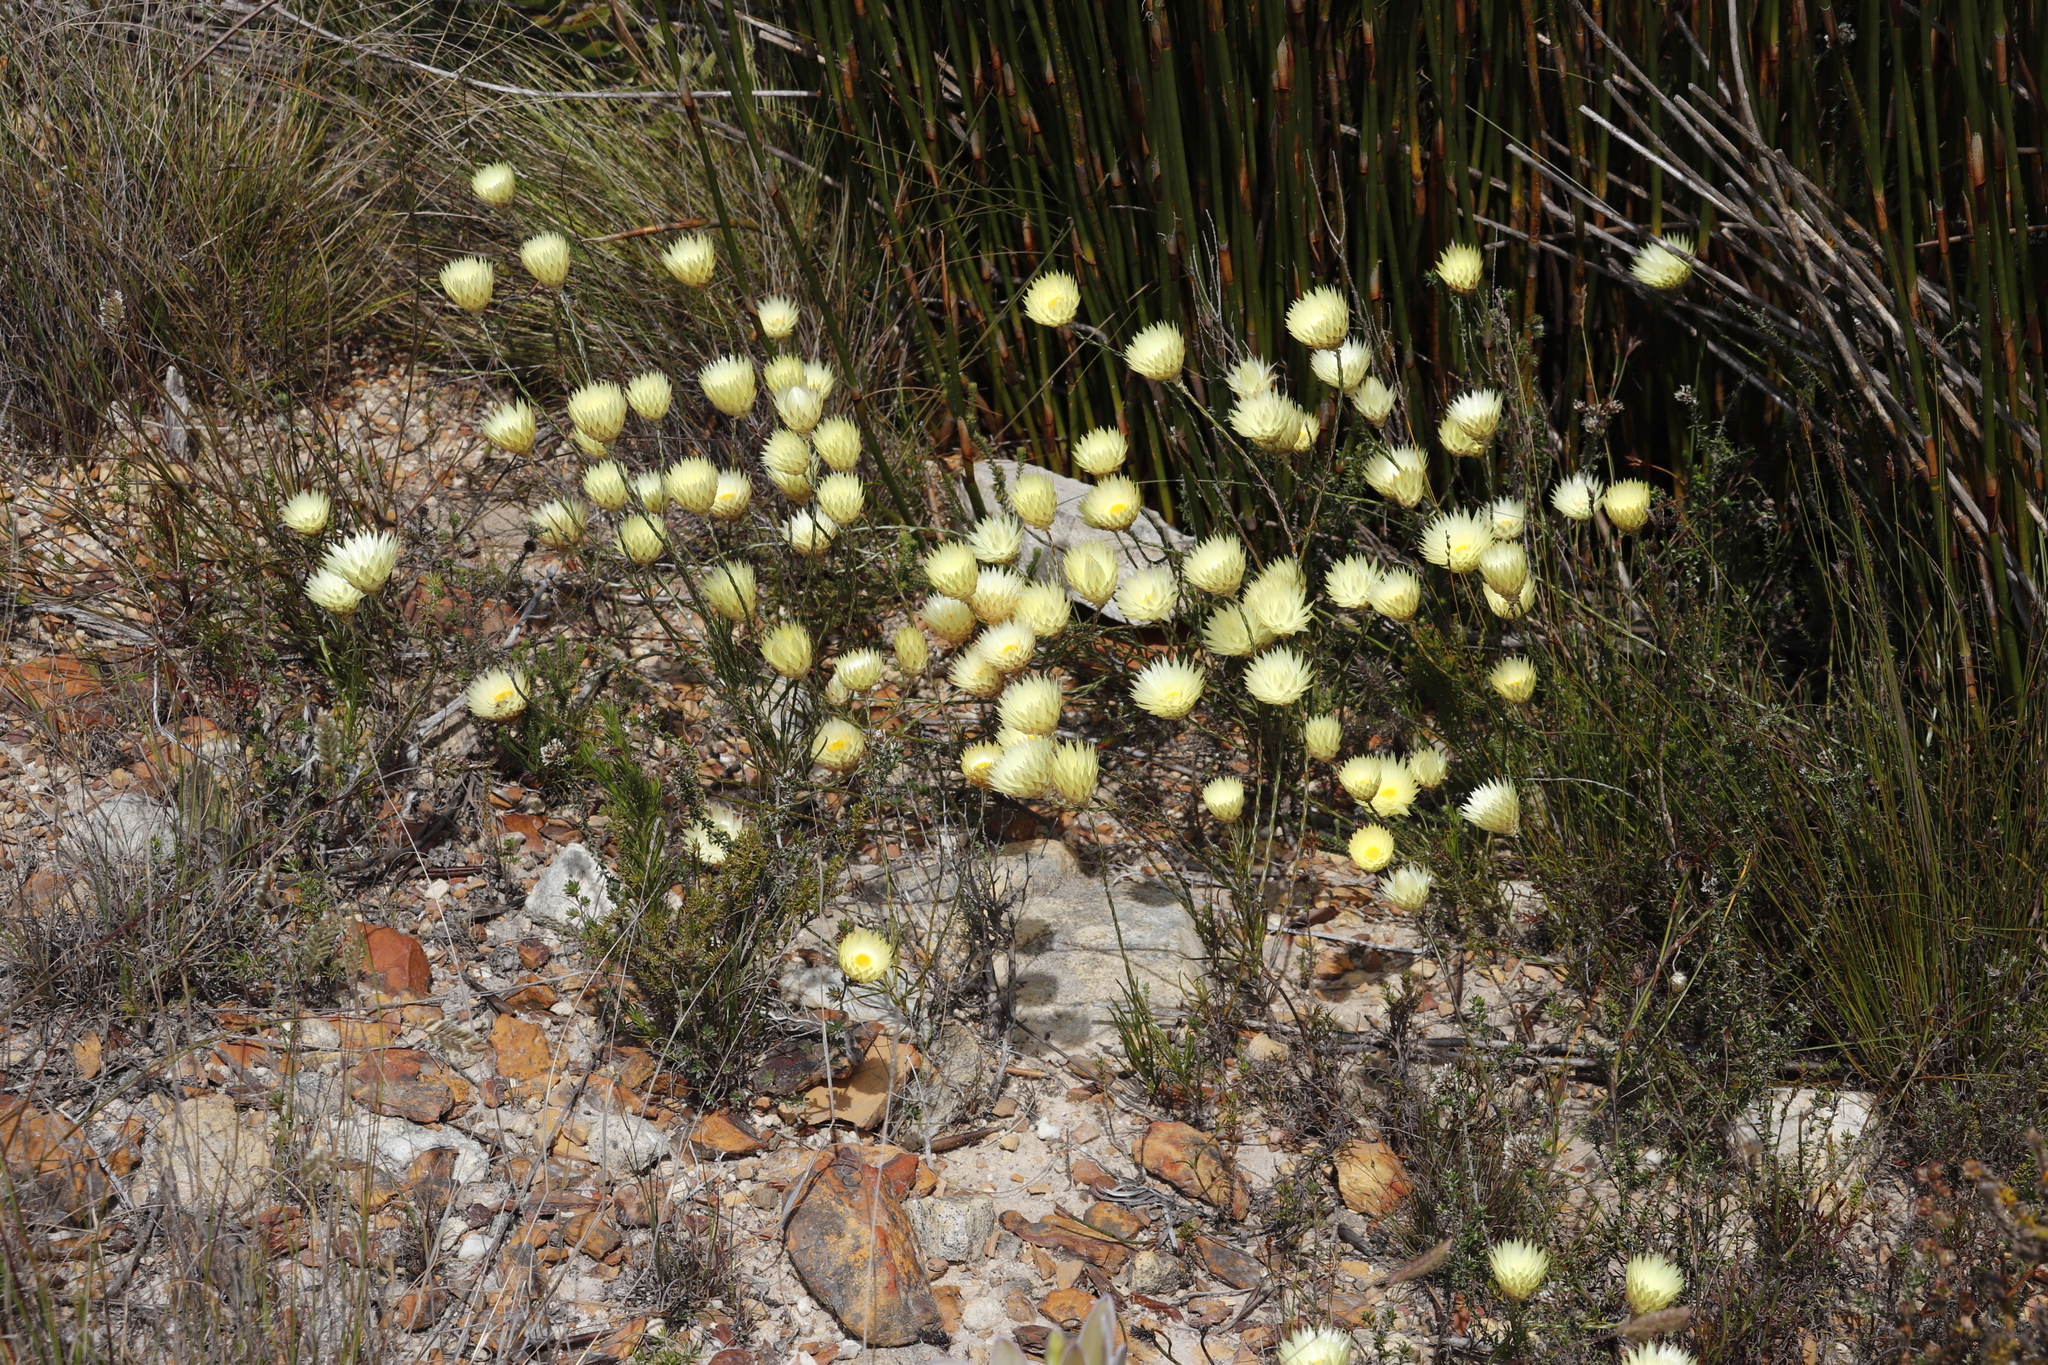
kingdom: Plantae
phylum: Tracheophyta
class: Magnoliopsida
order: Asterales
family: Asteraceae
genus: Edmondia
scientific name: Edmondia sesamoides
